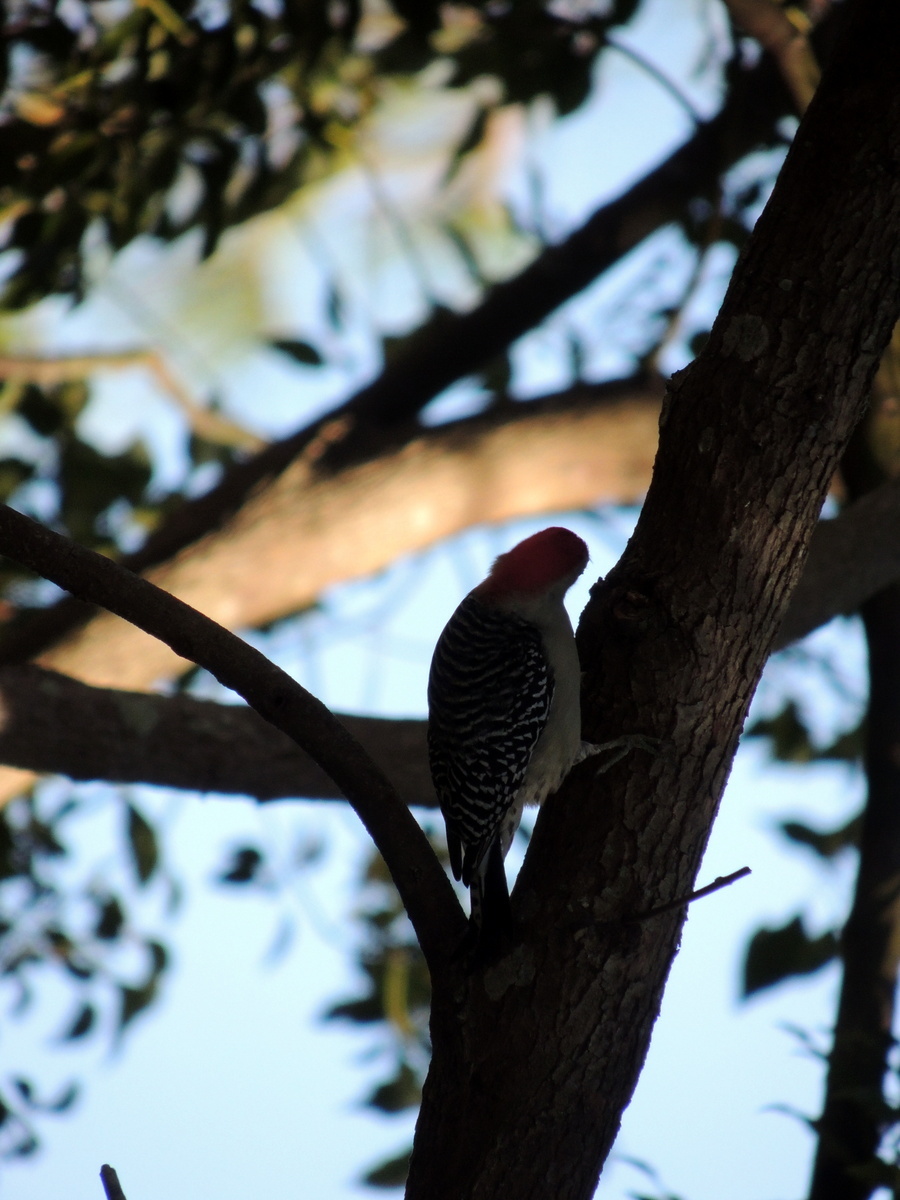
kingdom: Animalia
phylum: Chordata
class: Aves
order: Piciformes
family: Picidae
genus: Melanerpes
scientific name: Melanerpes carolinus
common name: Red-bellied woodpecker
